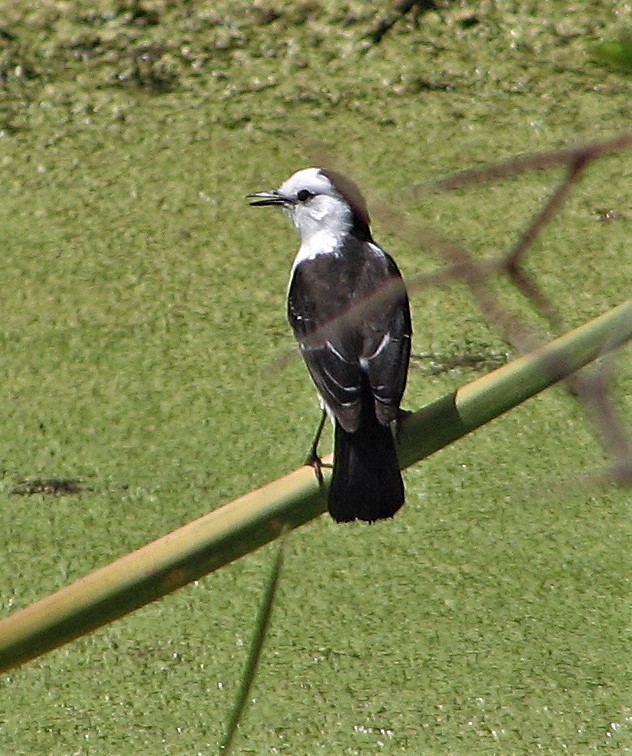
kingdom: Animalia
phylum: Chordata
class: Aves
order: Passeriformes
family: Tyrannidae
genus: Fluvicola
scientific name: Fluvicola pica
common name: Pied water-tyrant
